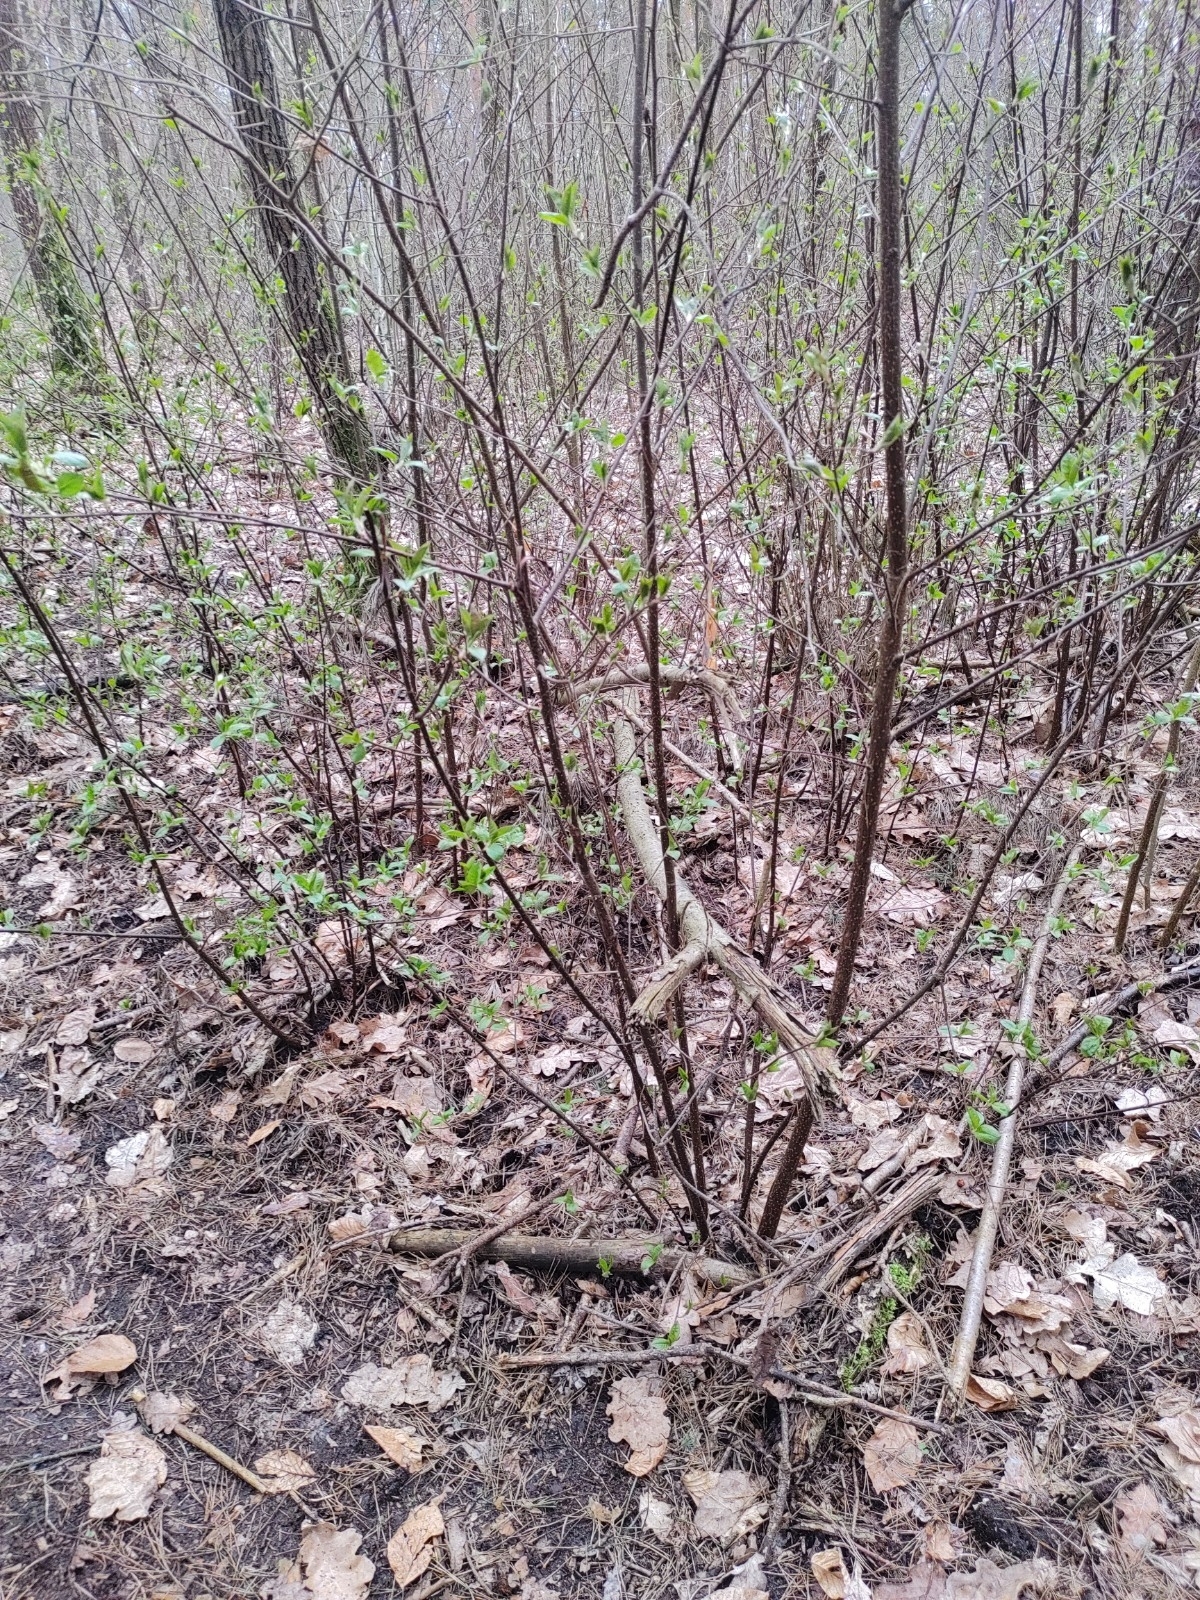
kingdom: Plantae
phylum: Tracheophyta
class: Magnoliopsida
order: Rosales
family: Rosaceae
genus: Prunus
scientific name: Prunus padus
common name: Bird cherry
